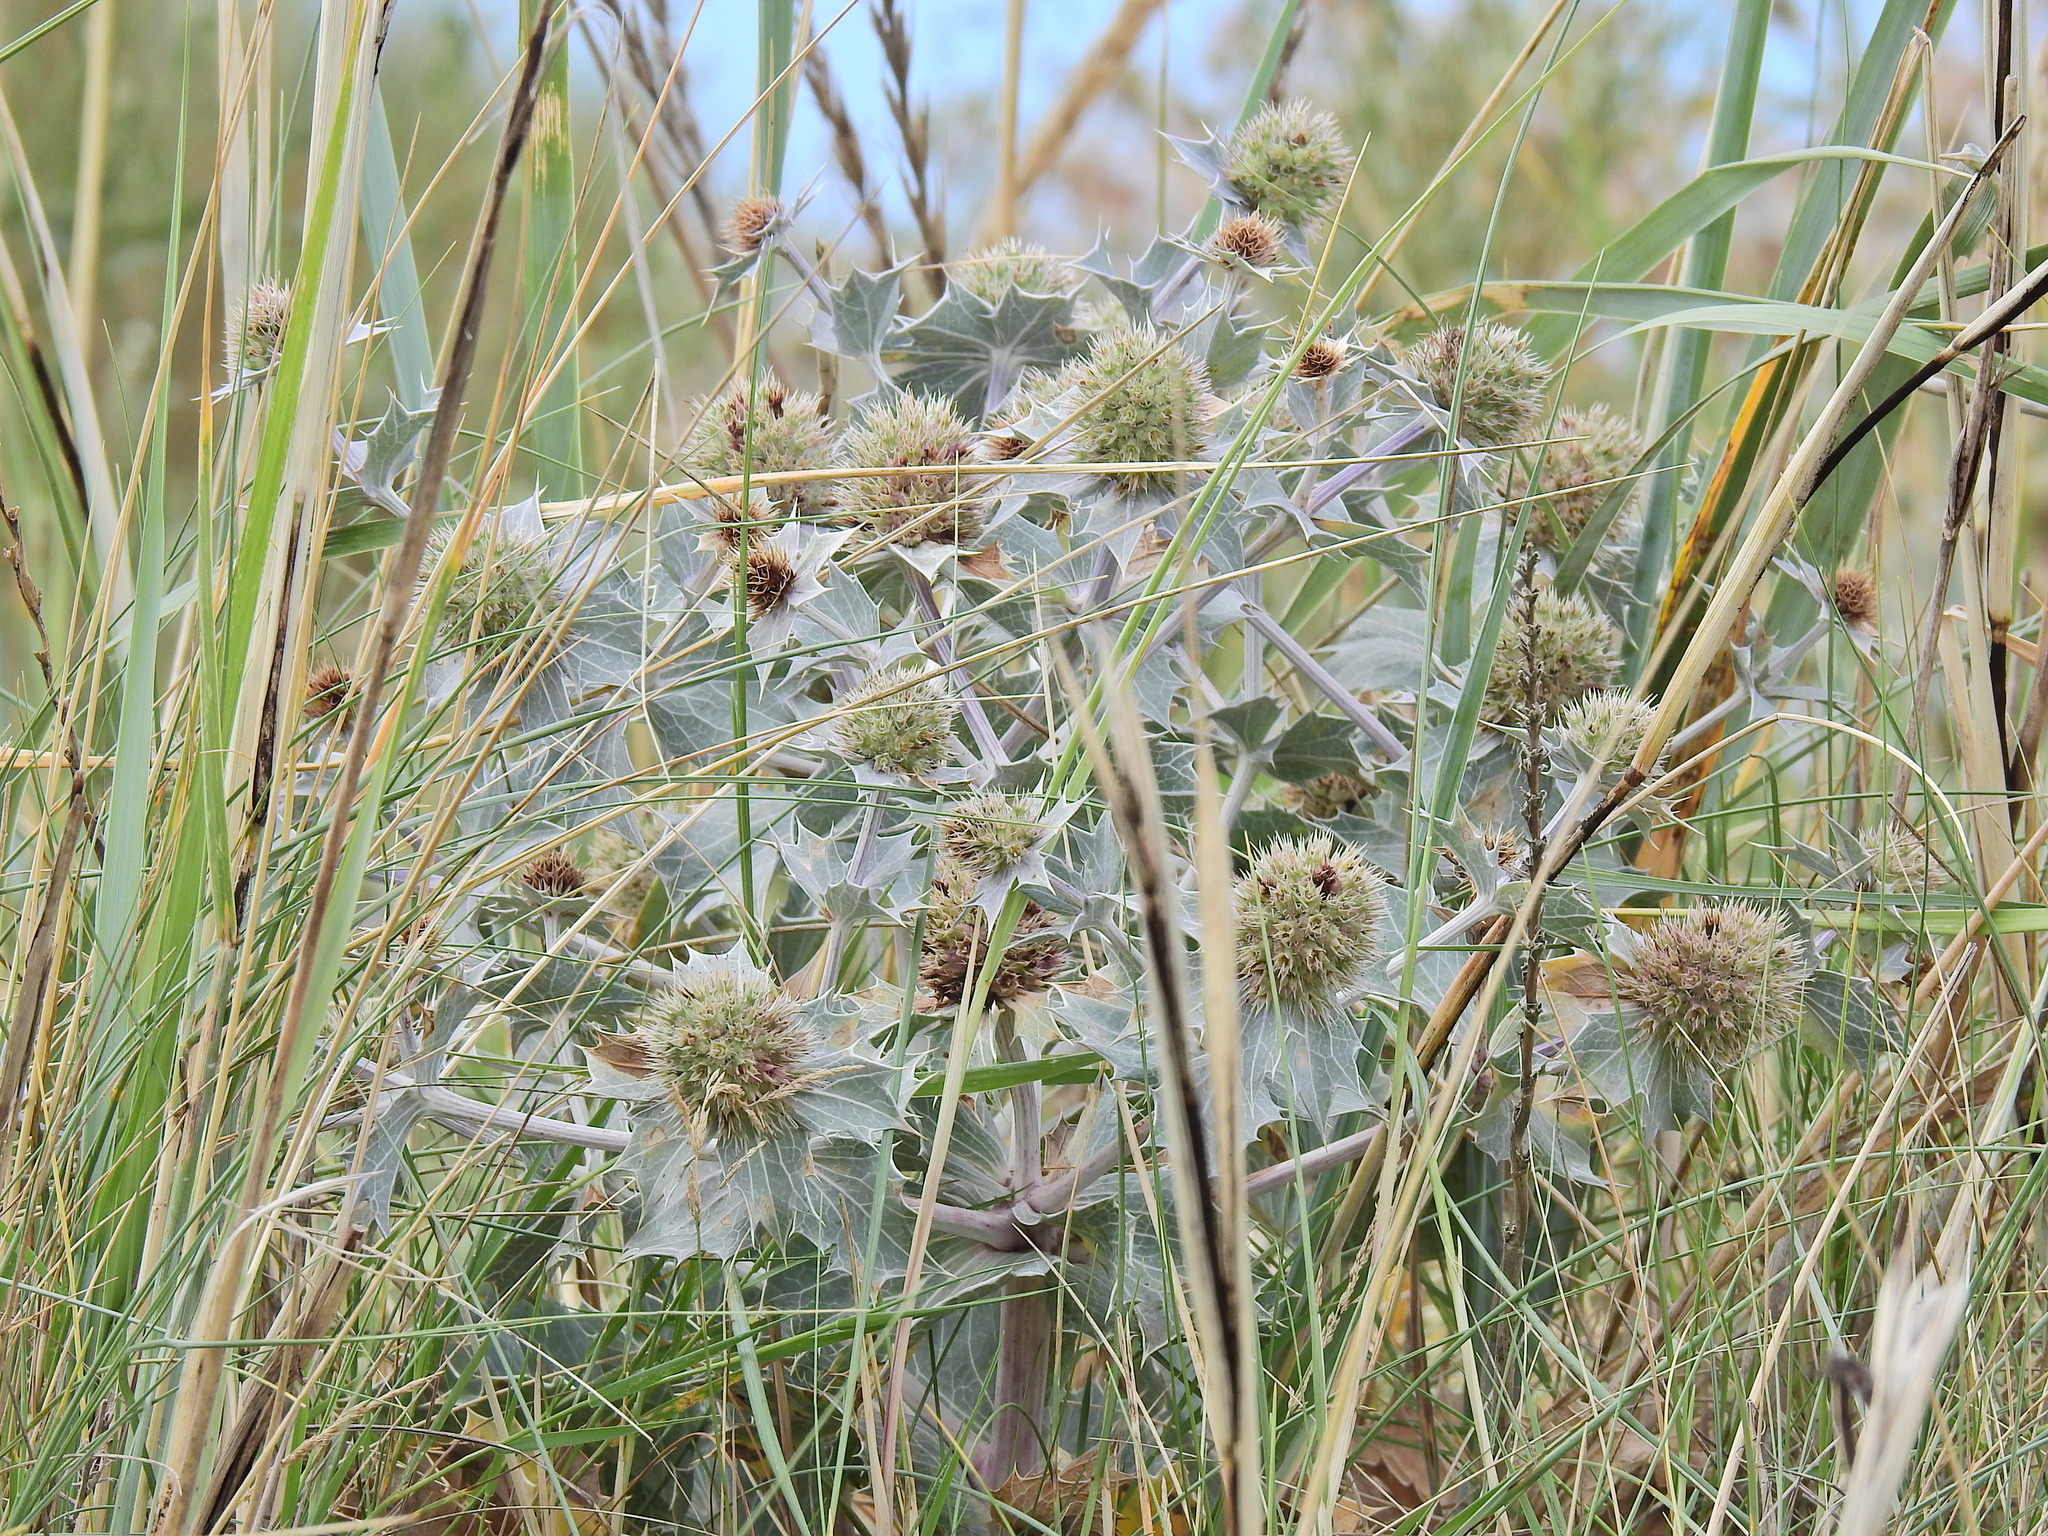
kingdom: Plantae
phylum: Tracheophyta
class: Magnoliopsida
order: Apiales
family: Apiaceae
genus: Eryngium
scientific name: Eryngium maritimum
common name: Sea-holly
